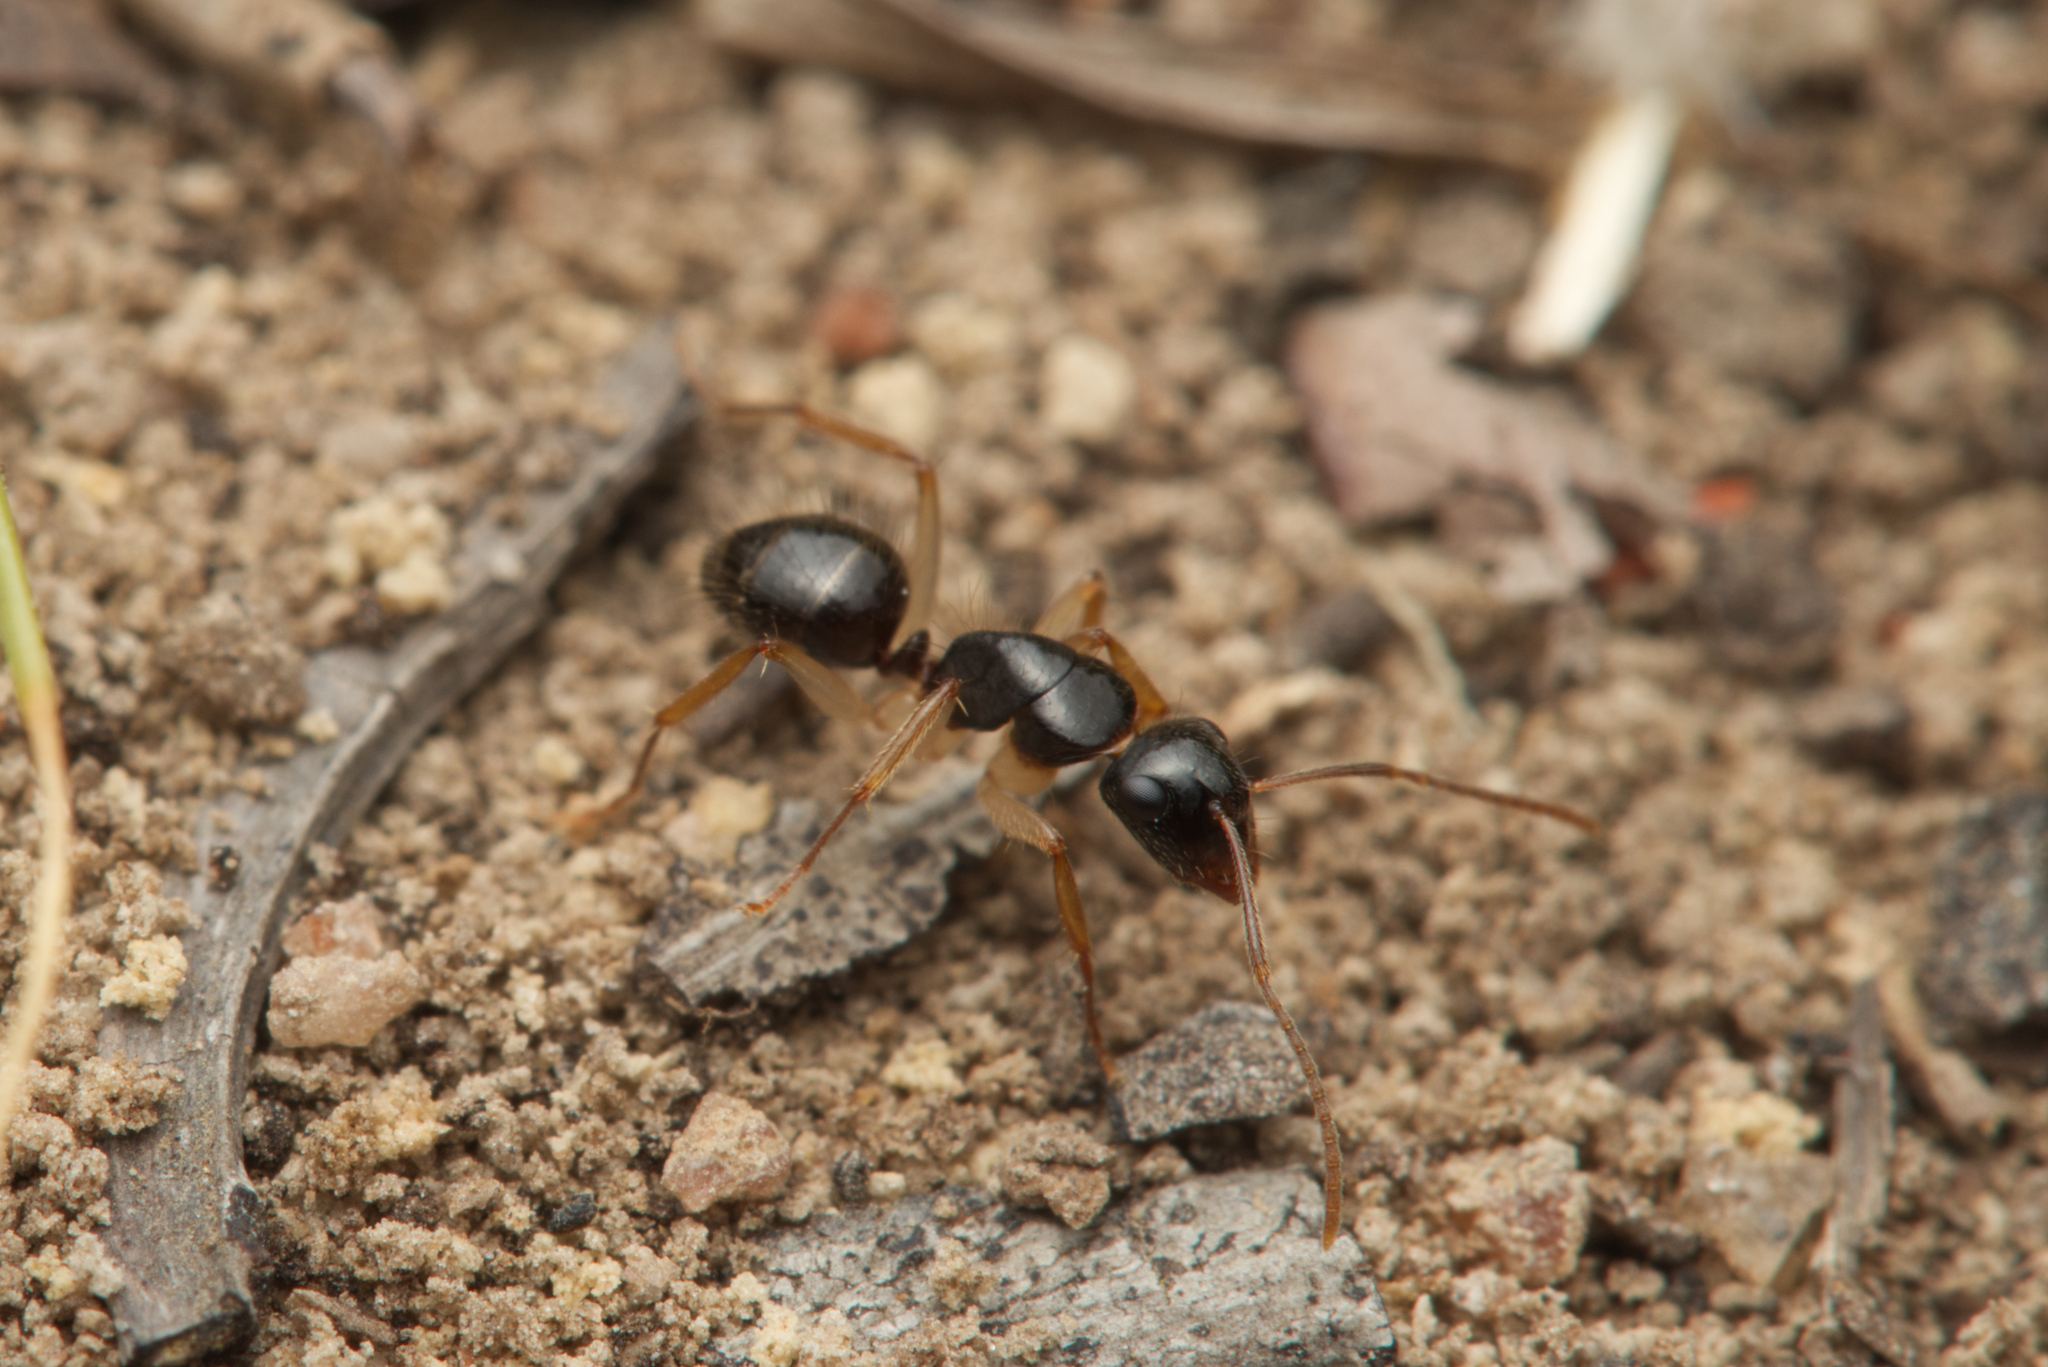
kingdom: Animalia
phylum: Arthropoda
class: Insecta
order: Hymenoptera
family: Formicidae
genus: Camponotus
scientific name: Camponotus lownei
